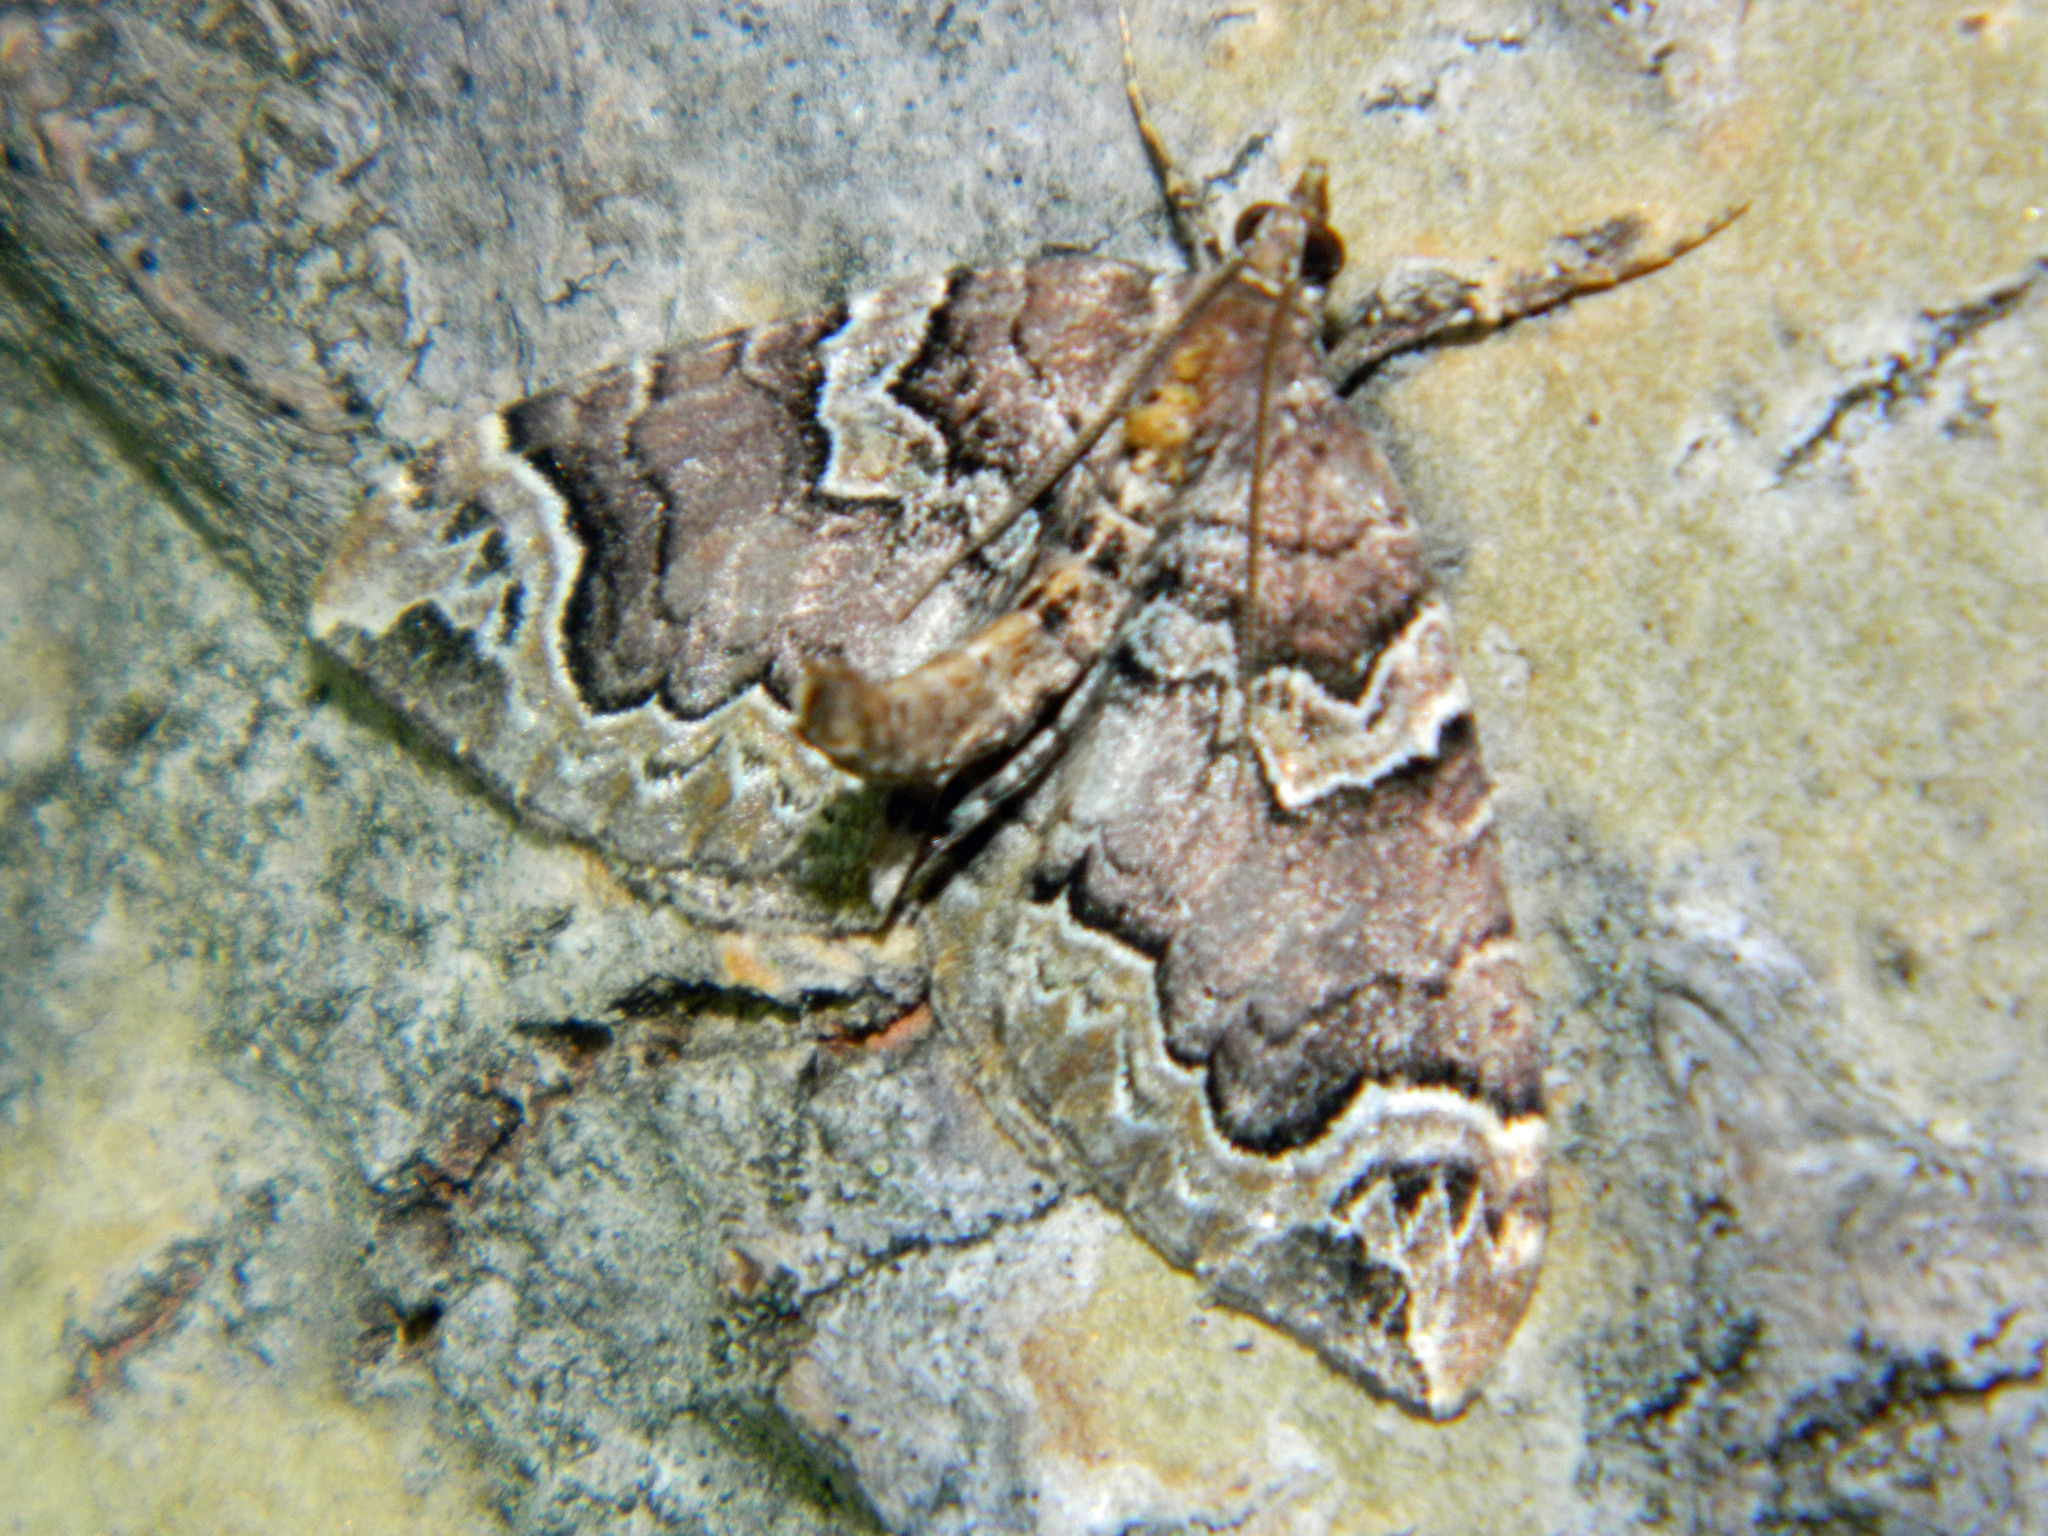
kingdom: Animalia
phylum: Arthropoda
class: Insecta
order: Lepidoptera
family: Geometridae
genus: Eulithis
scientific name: Eulithis serrataria
